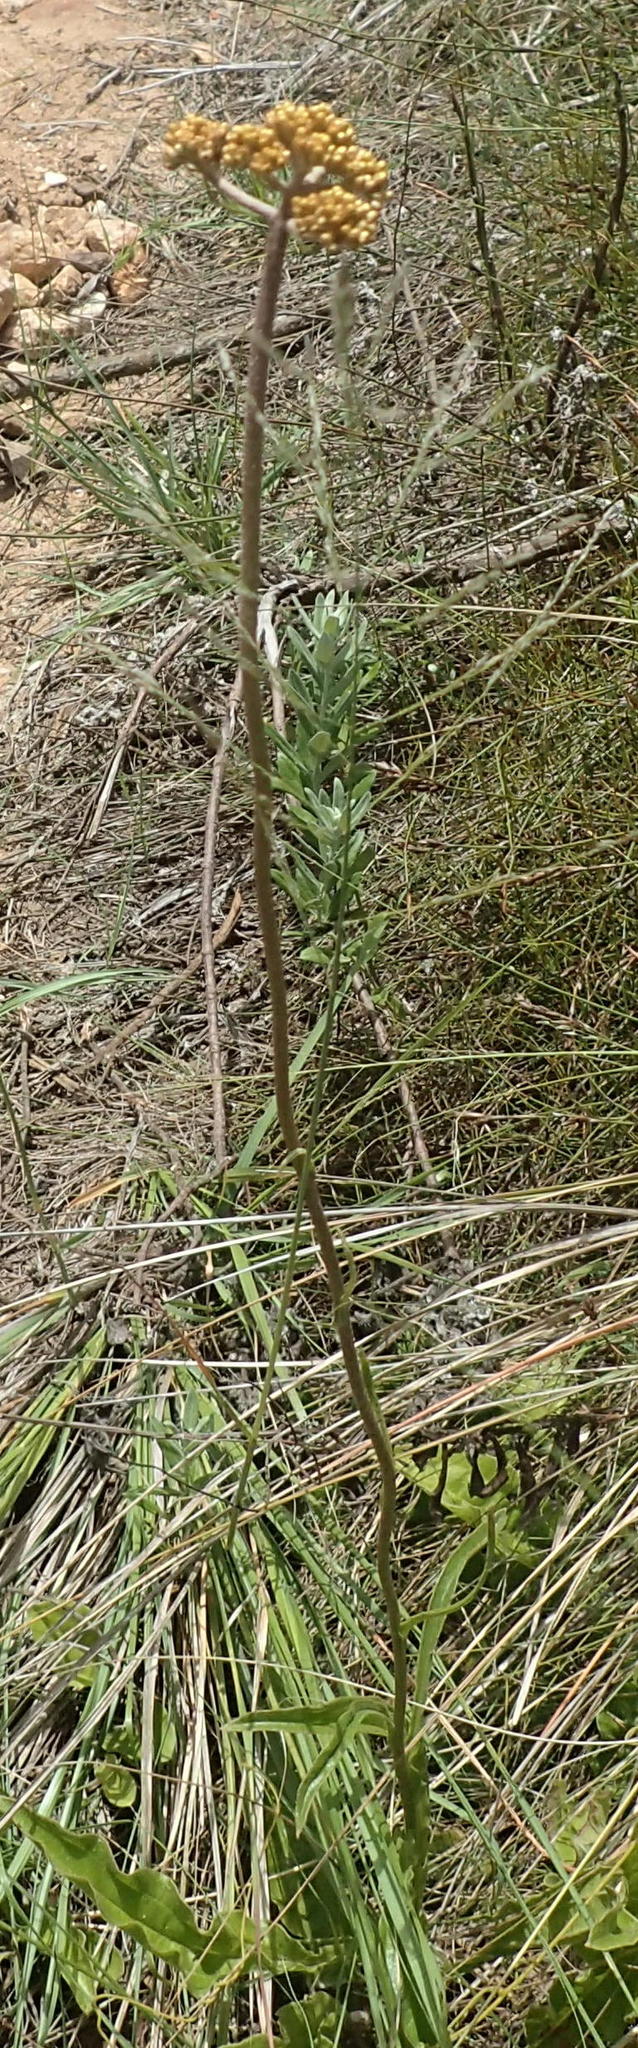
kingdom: Plantae
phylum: Tracheophyta
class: Magnoliopsida
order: Asterales
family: Asteraceae
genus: Helichrysum
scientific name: Helichrysum nudifolium
